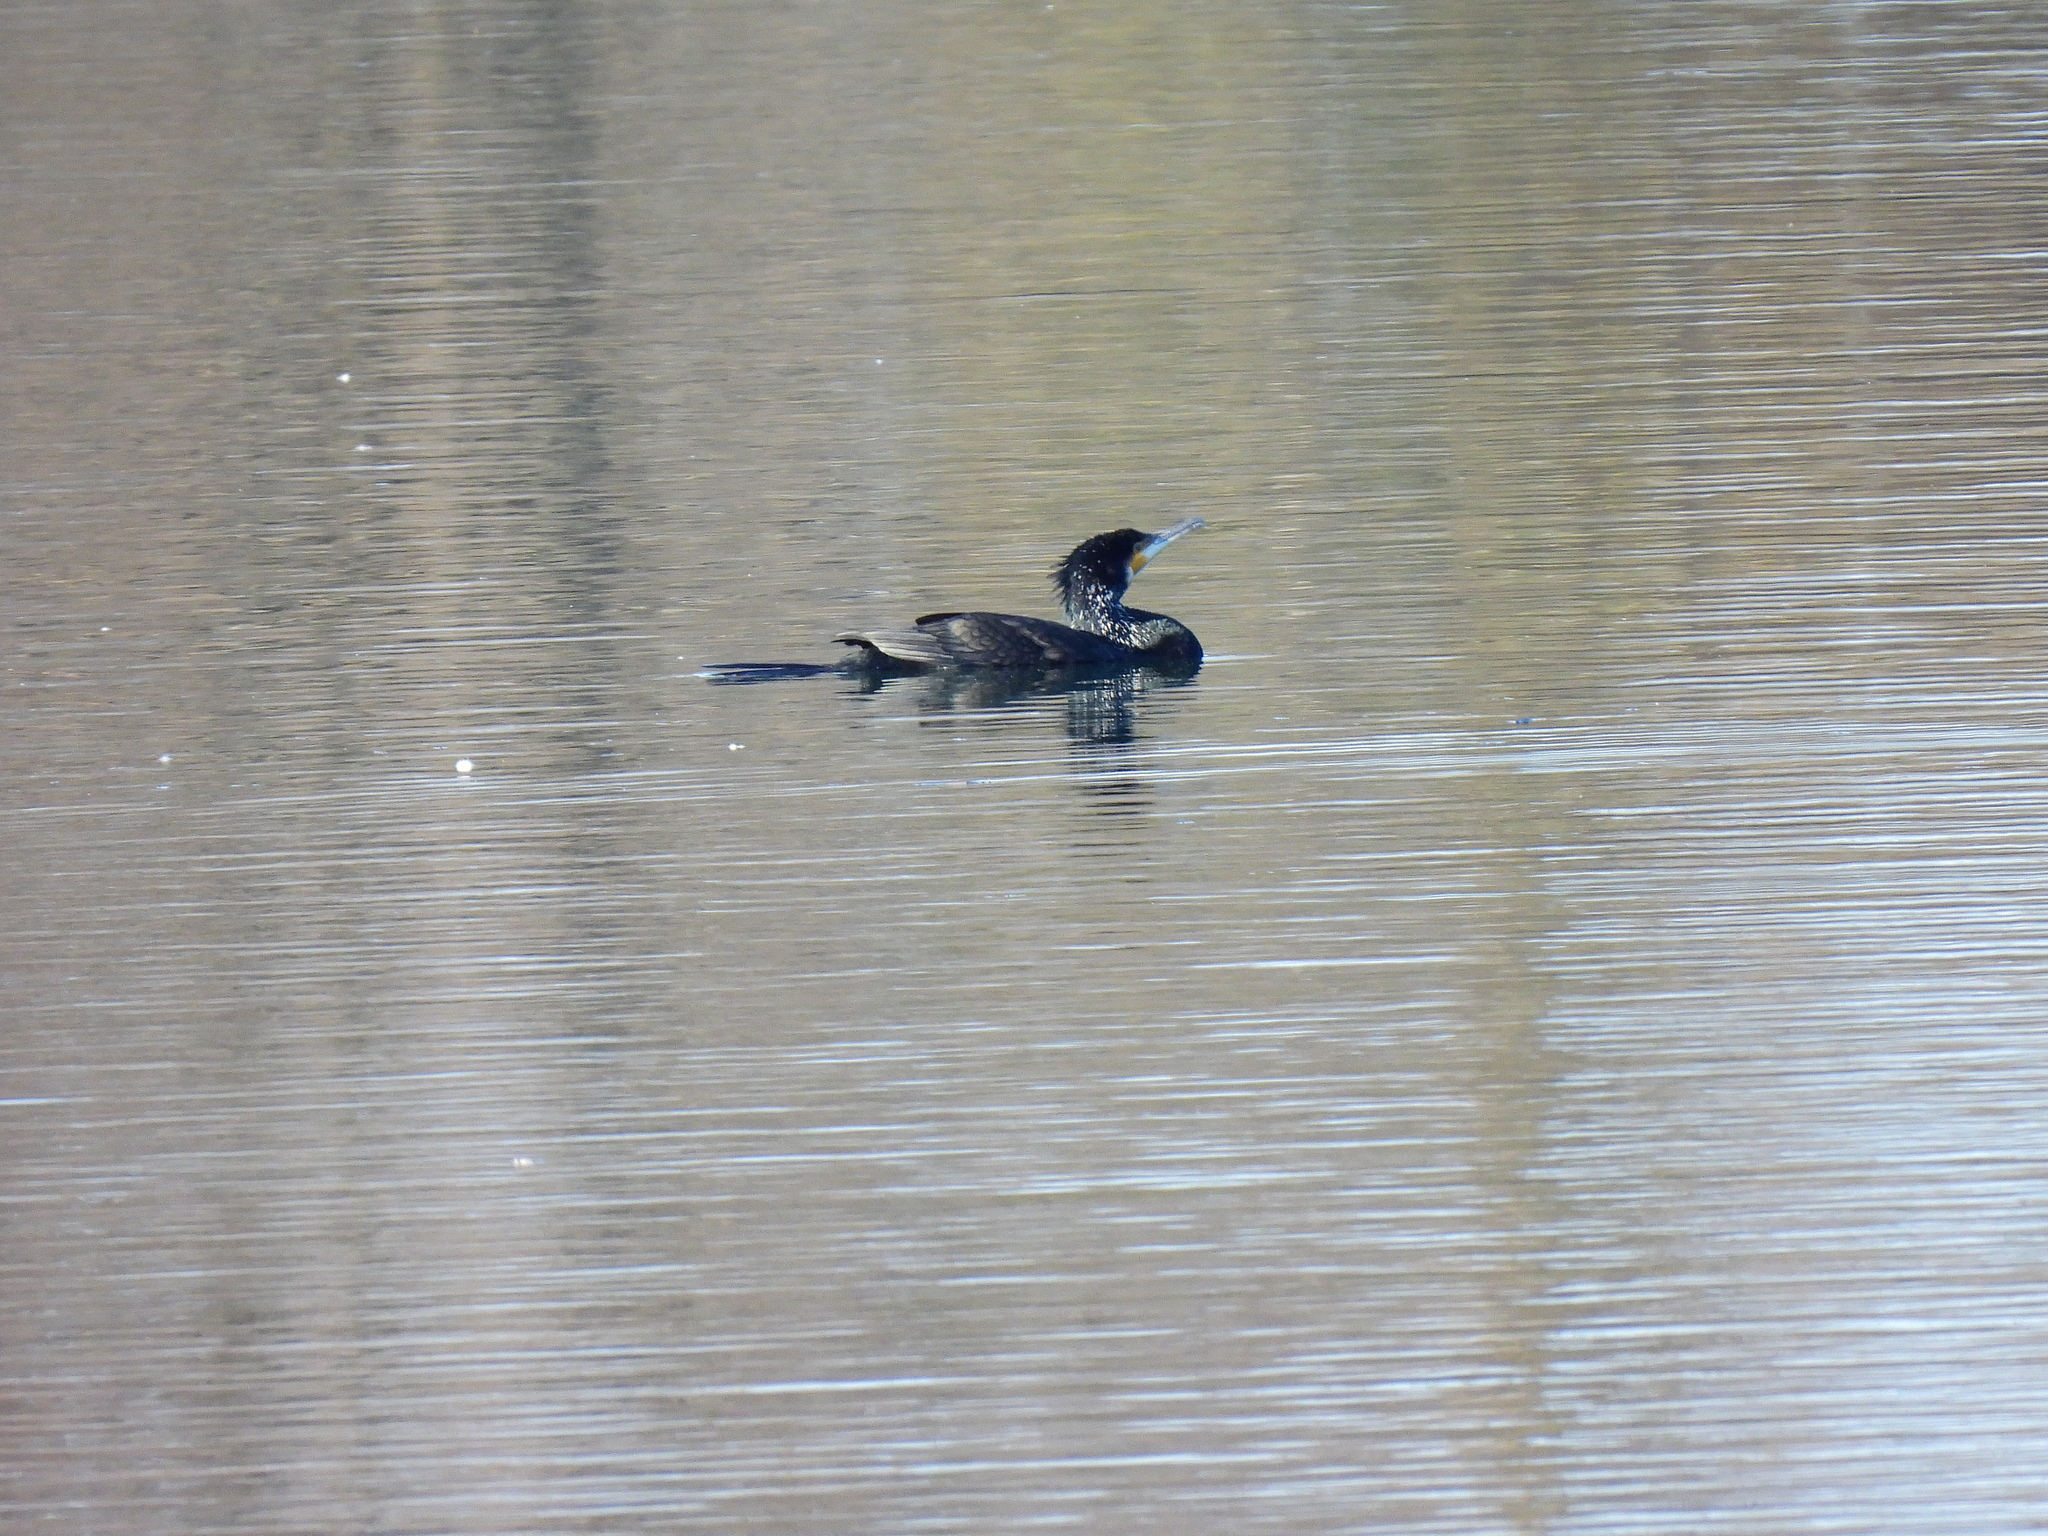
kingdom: Animalia
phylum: Chordata
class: Aves
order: Suliformes
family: Phalacrocoracidae
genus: Phalacrocorax
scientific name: Phalacrocorax carbo
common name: Great cormorant
